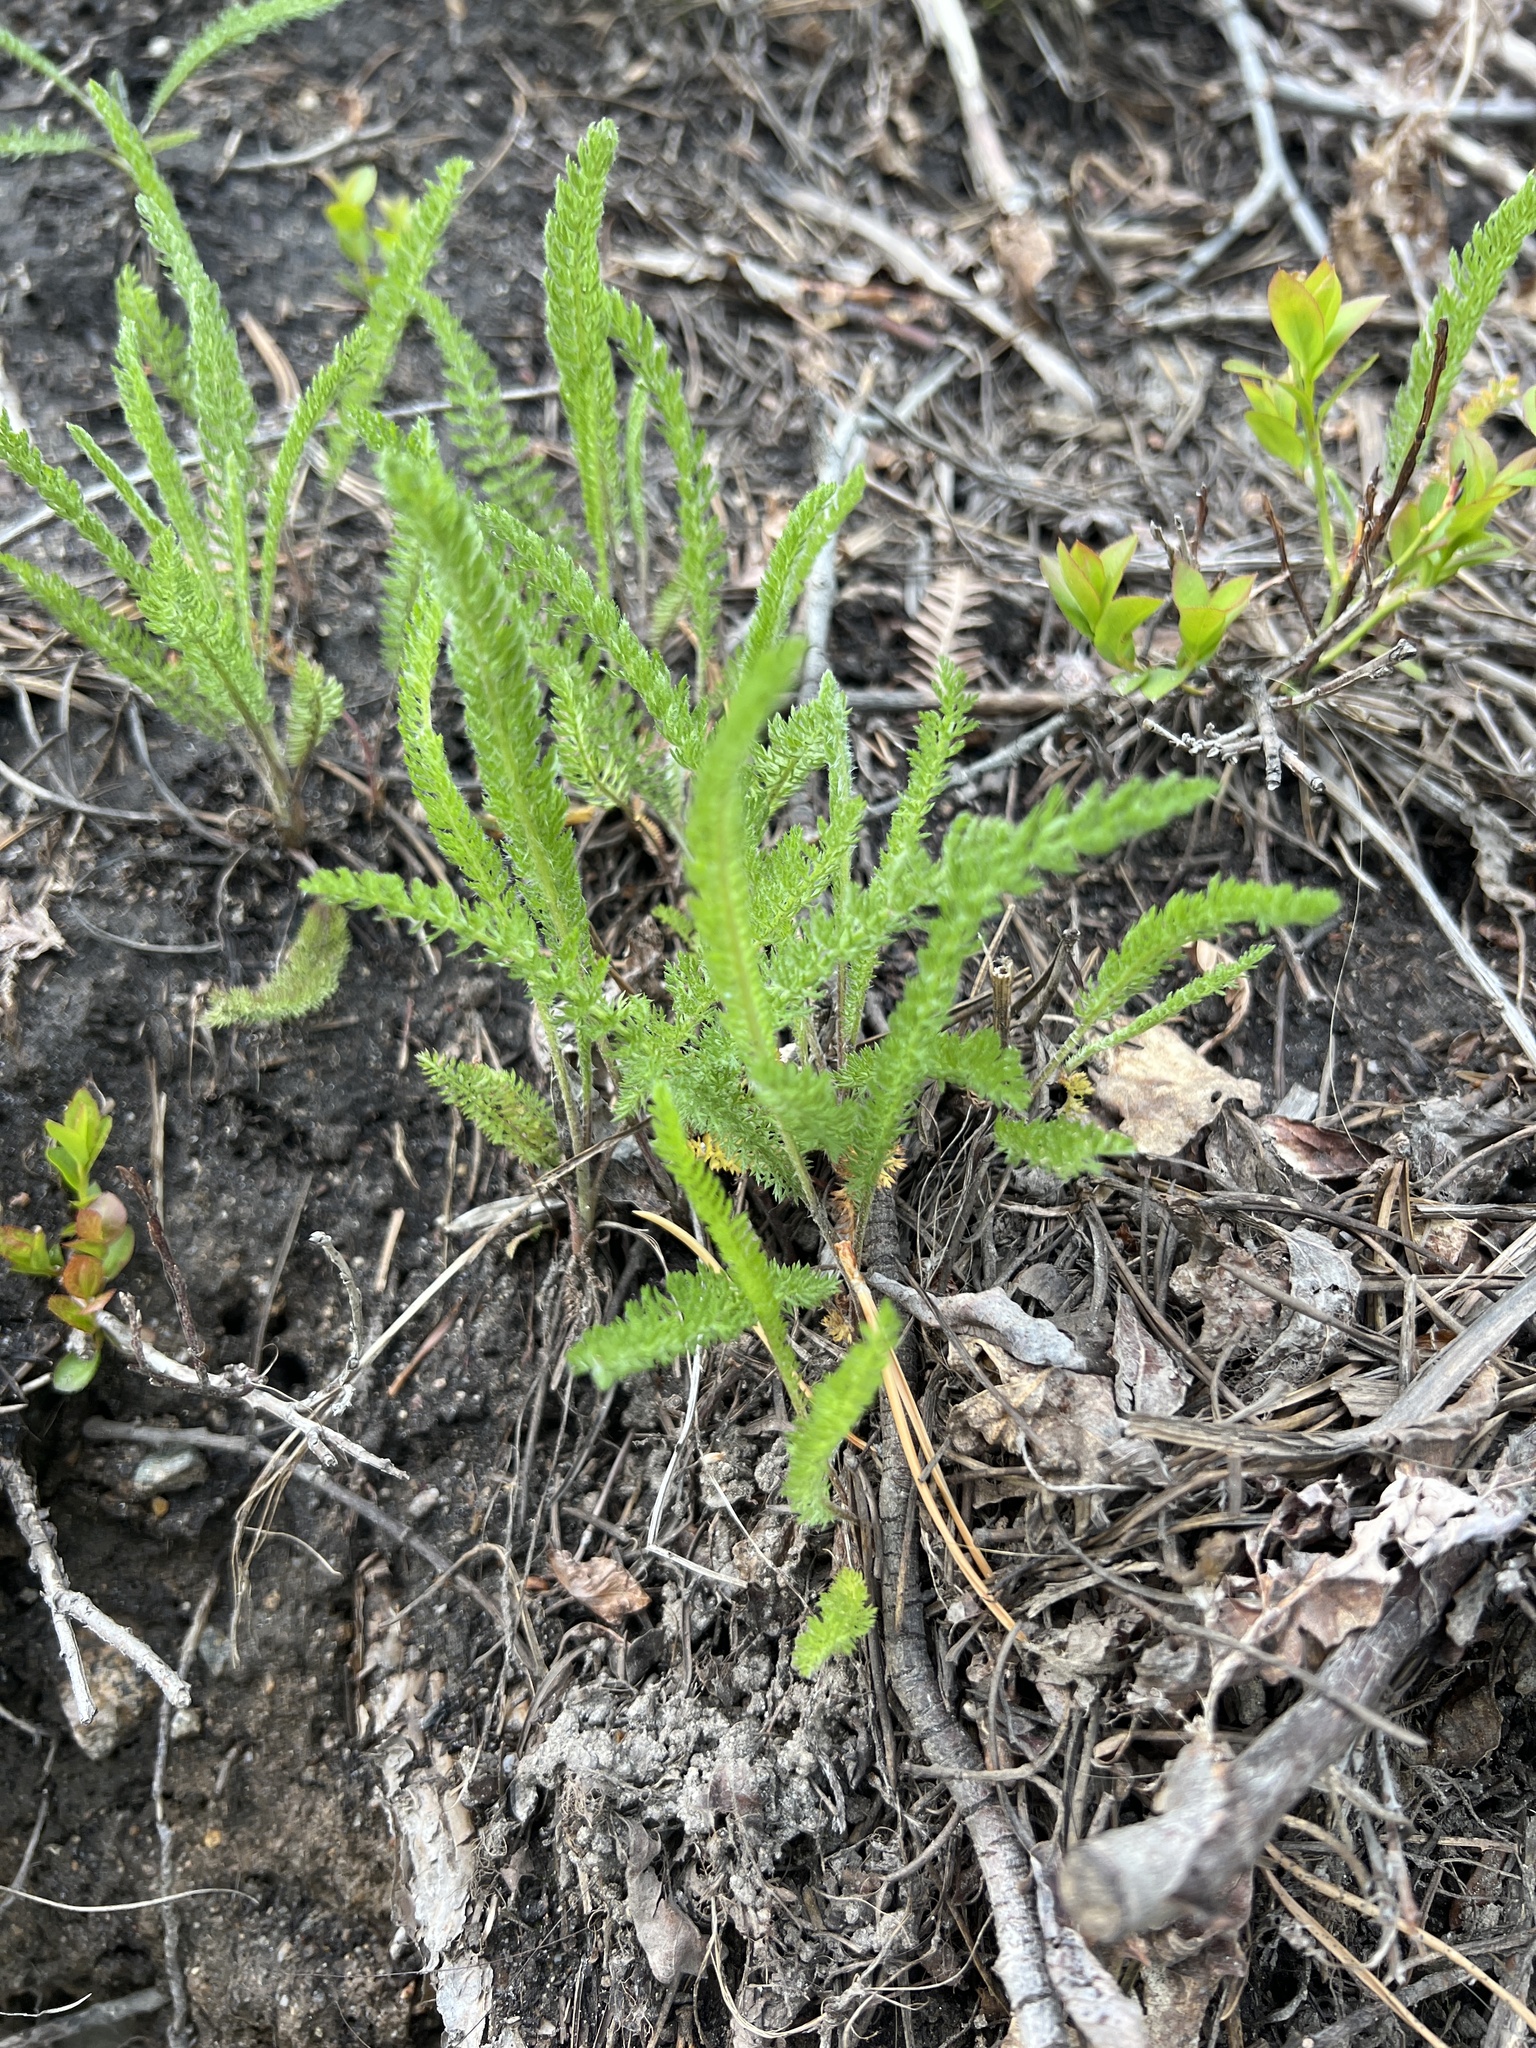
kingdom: Plantae
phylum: Tracheophyta
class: Magnoliopsida
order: Asterales
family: Asteraceae
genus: Achillea
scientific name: Achillea millefolium
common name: Yarrow
